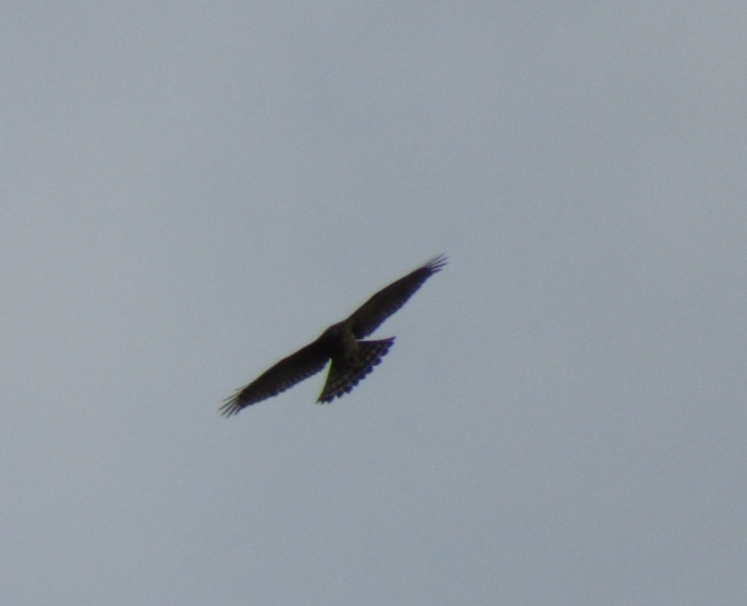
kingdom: Animalia
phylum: Chordata
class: Aves
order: Accipitriformes
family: Accipitridae
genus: Accipiter
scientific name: Accipiter gentilis
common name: Northern goshawk
